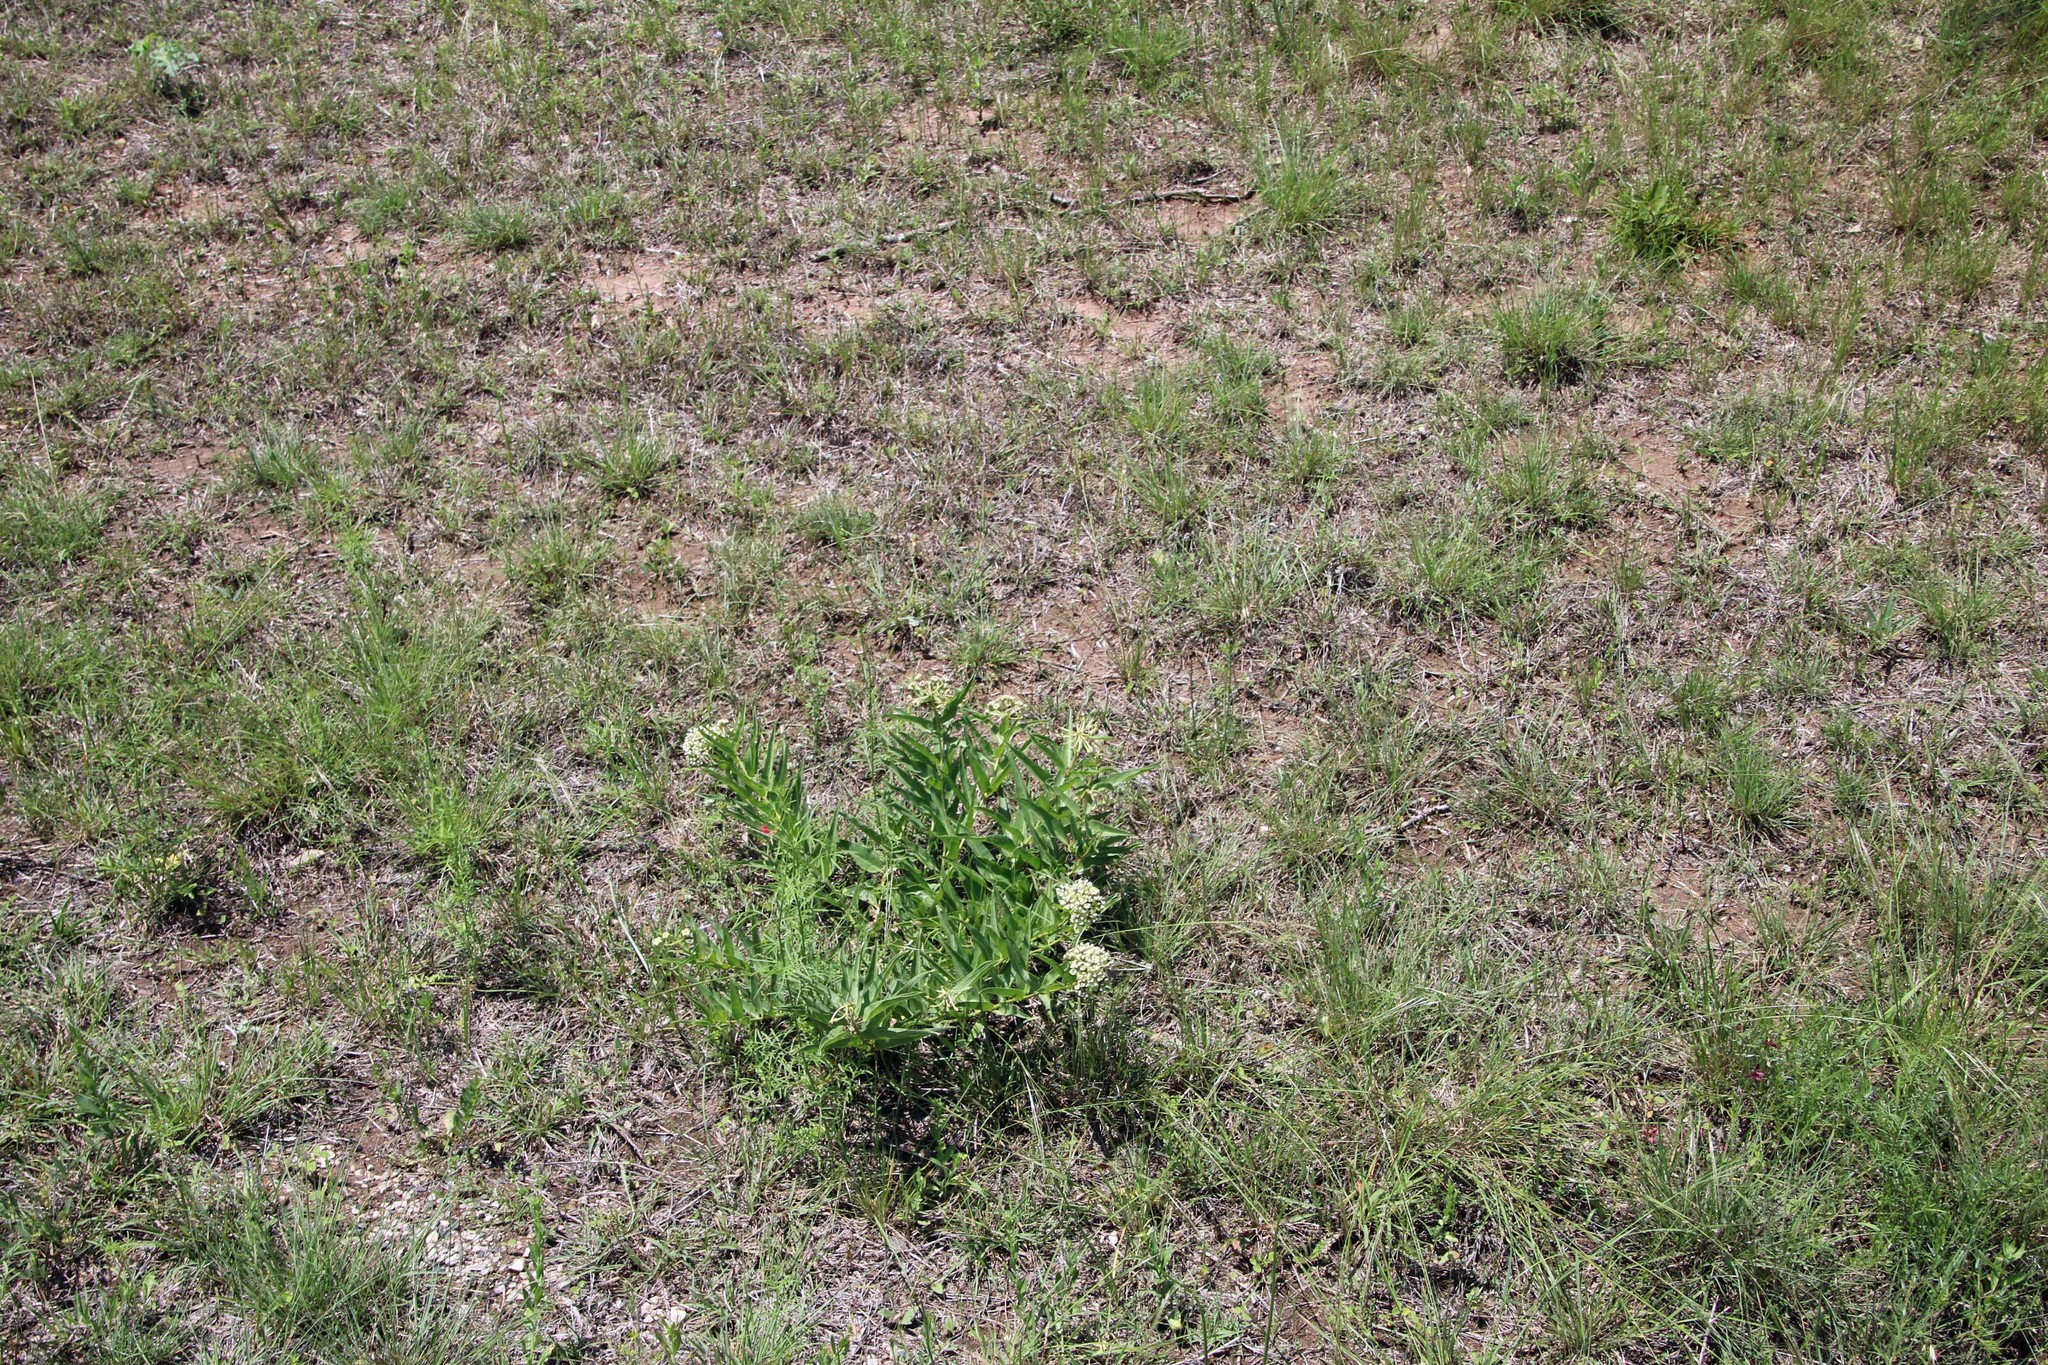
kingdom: Plantae
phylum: Tracheophyta
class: Magnoliopsida
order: Gentianales
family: Apocynaceae
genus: Asclepias
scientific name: Asclepias asperula
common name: Antelope horns
